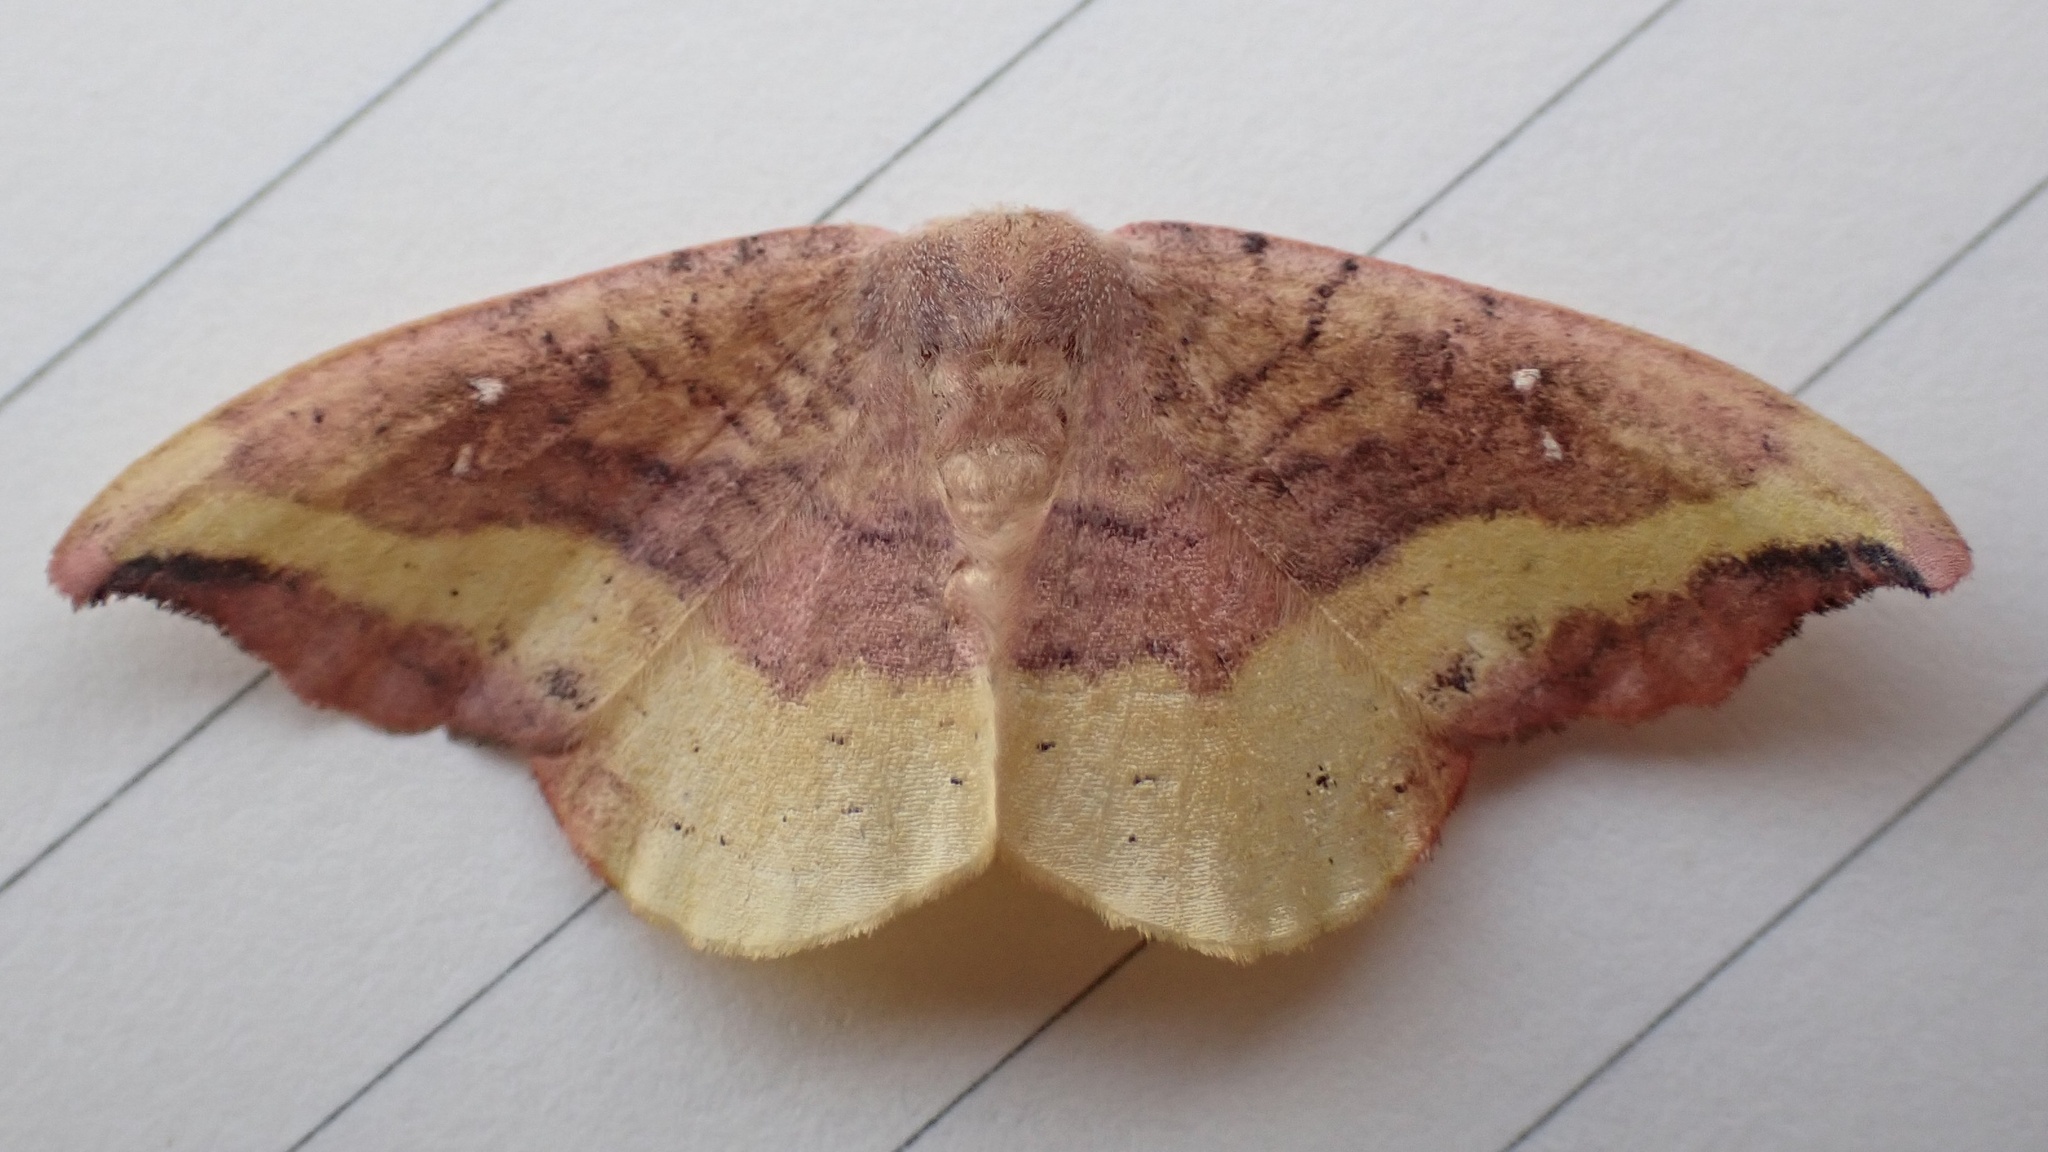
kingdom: Animalia
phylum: Arthropoda
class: Insecta
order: Lepidoptera
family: Drepanidae
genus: Oreta
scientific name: Oreta rosea
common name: Rose hooktip
